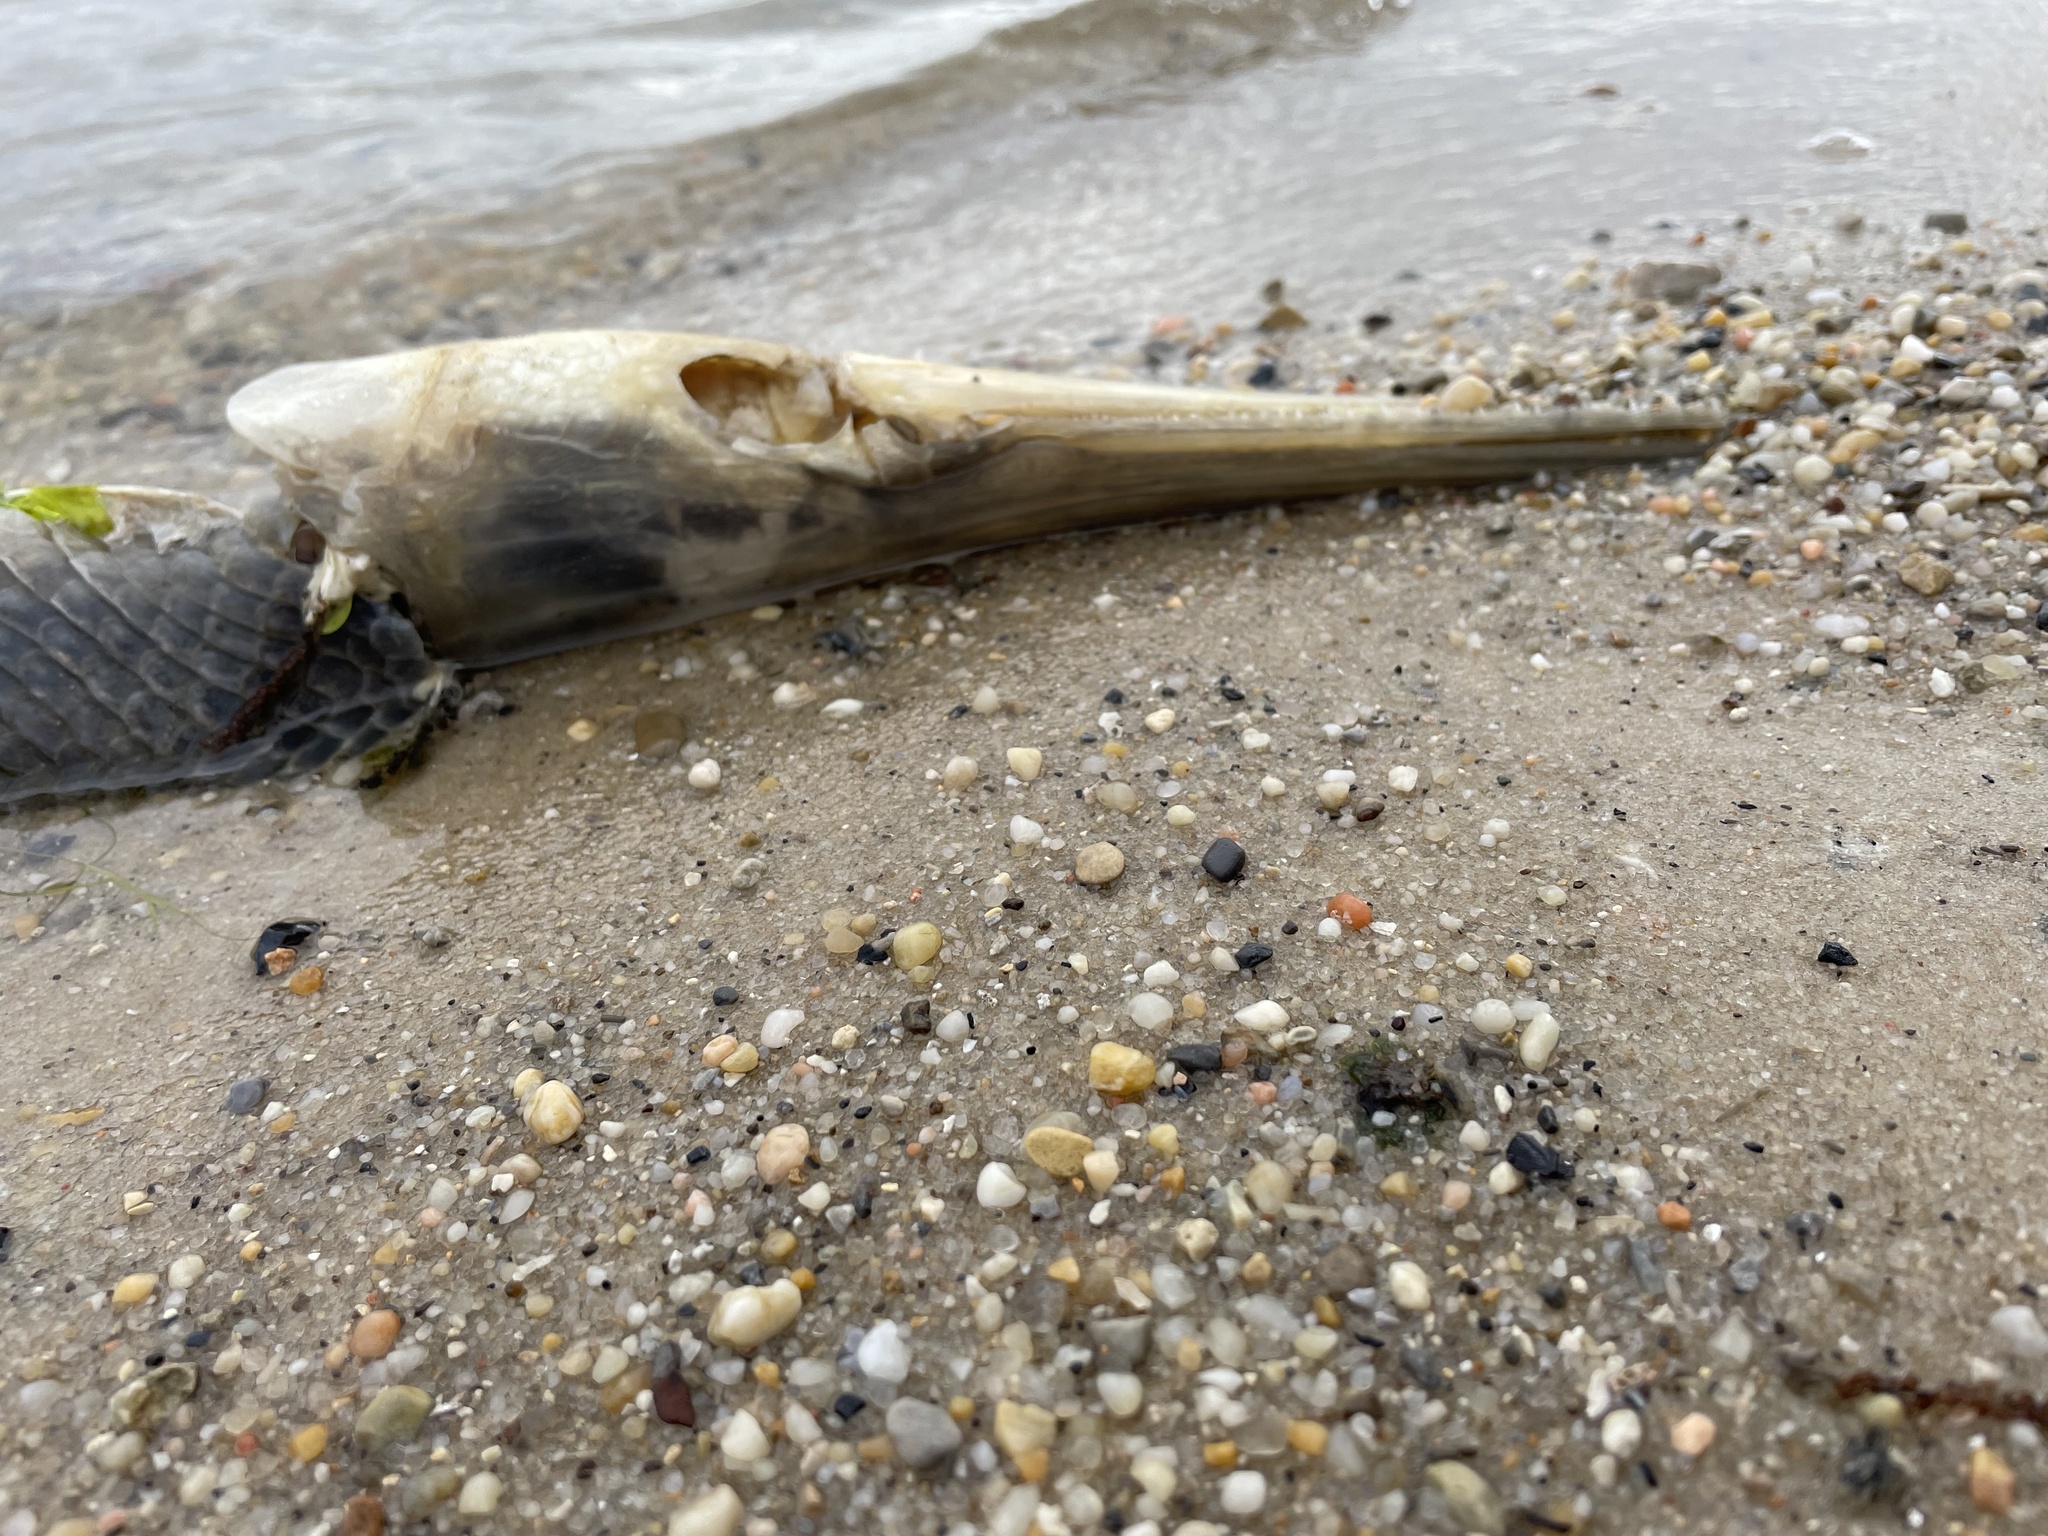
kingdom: Animalia
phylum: Chordata
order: Lepisosteiformes
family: Lepisosteidae
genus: Lepisosteus
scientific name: Lepisosteus osseus
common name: Longnose gar
